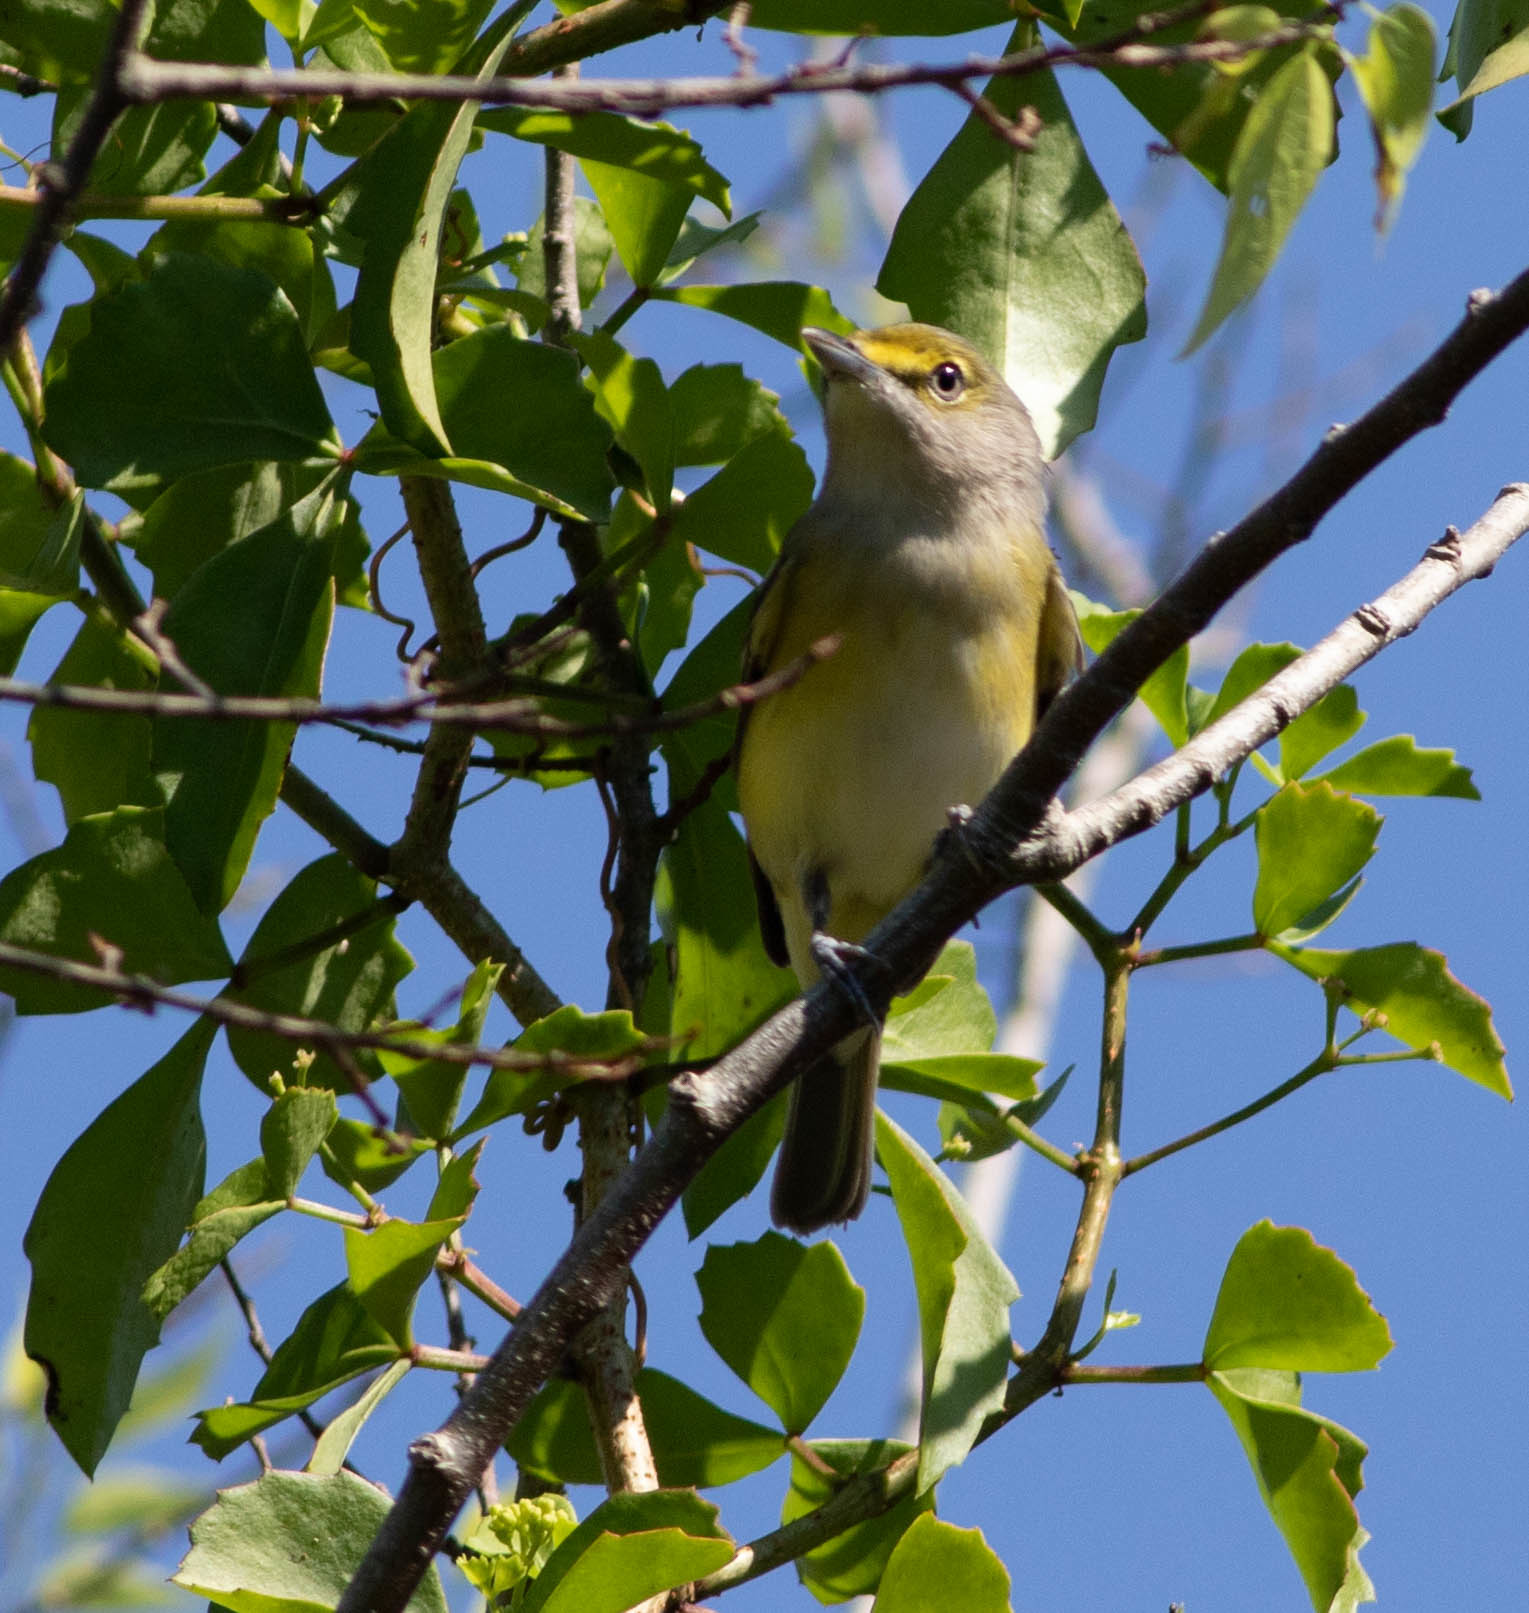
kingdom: Animalia
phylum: Chordata
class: Aves
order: Passeriformes
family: Vireonidae
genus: Vireo
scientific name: Vireo griseus
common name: White-eyed vireo
